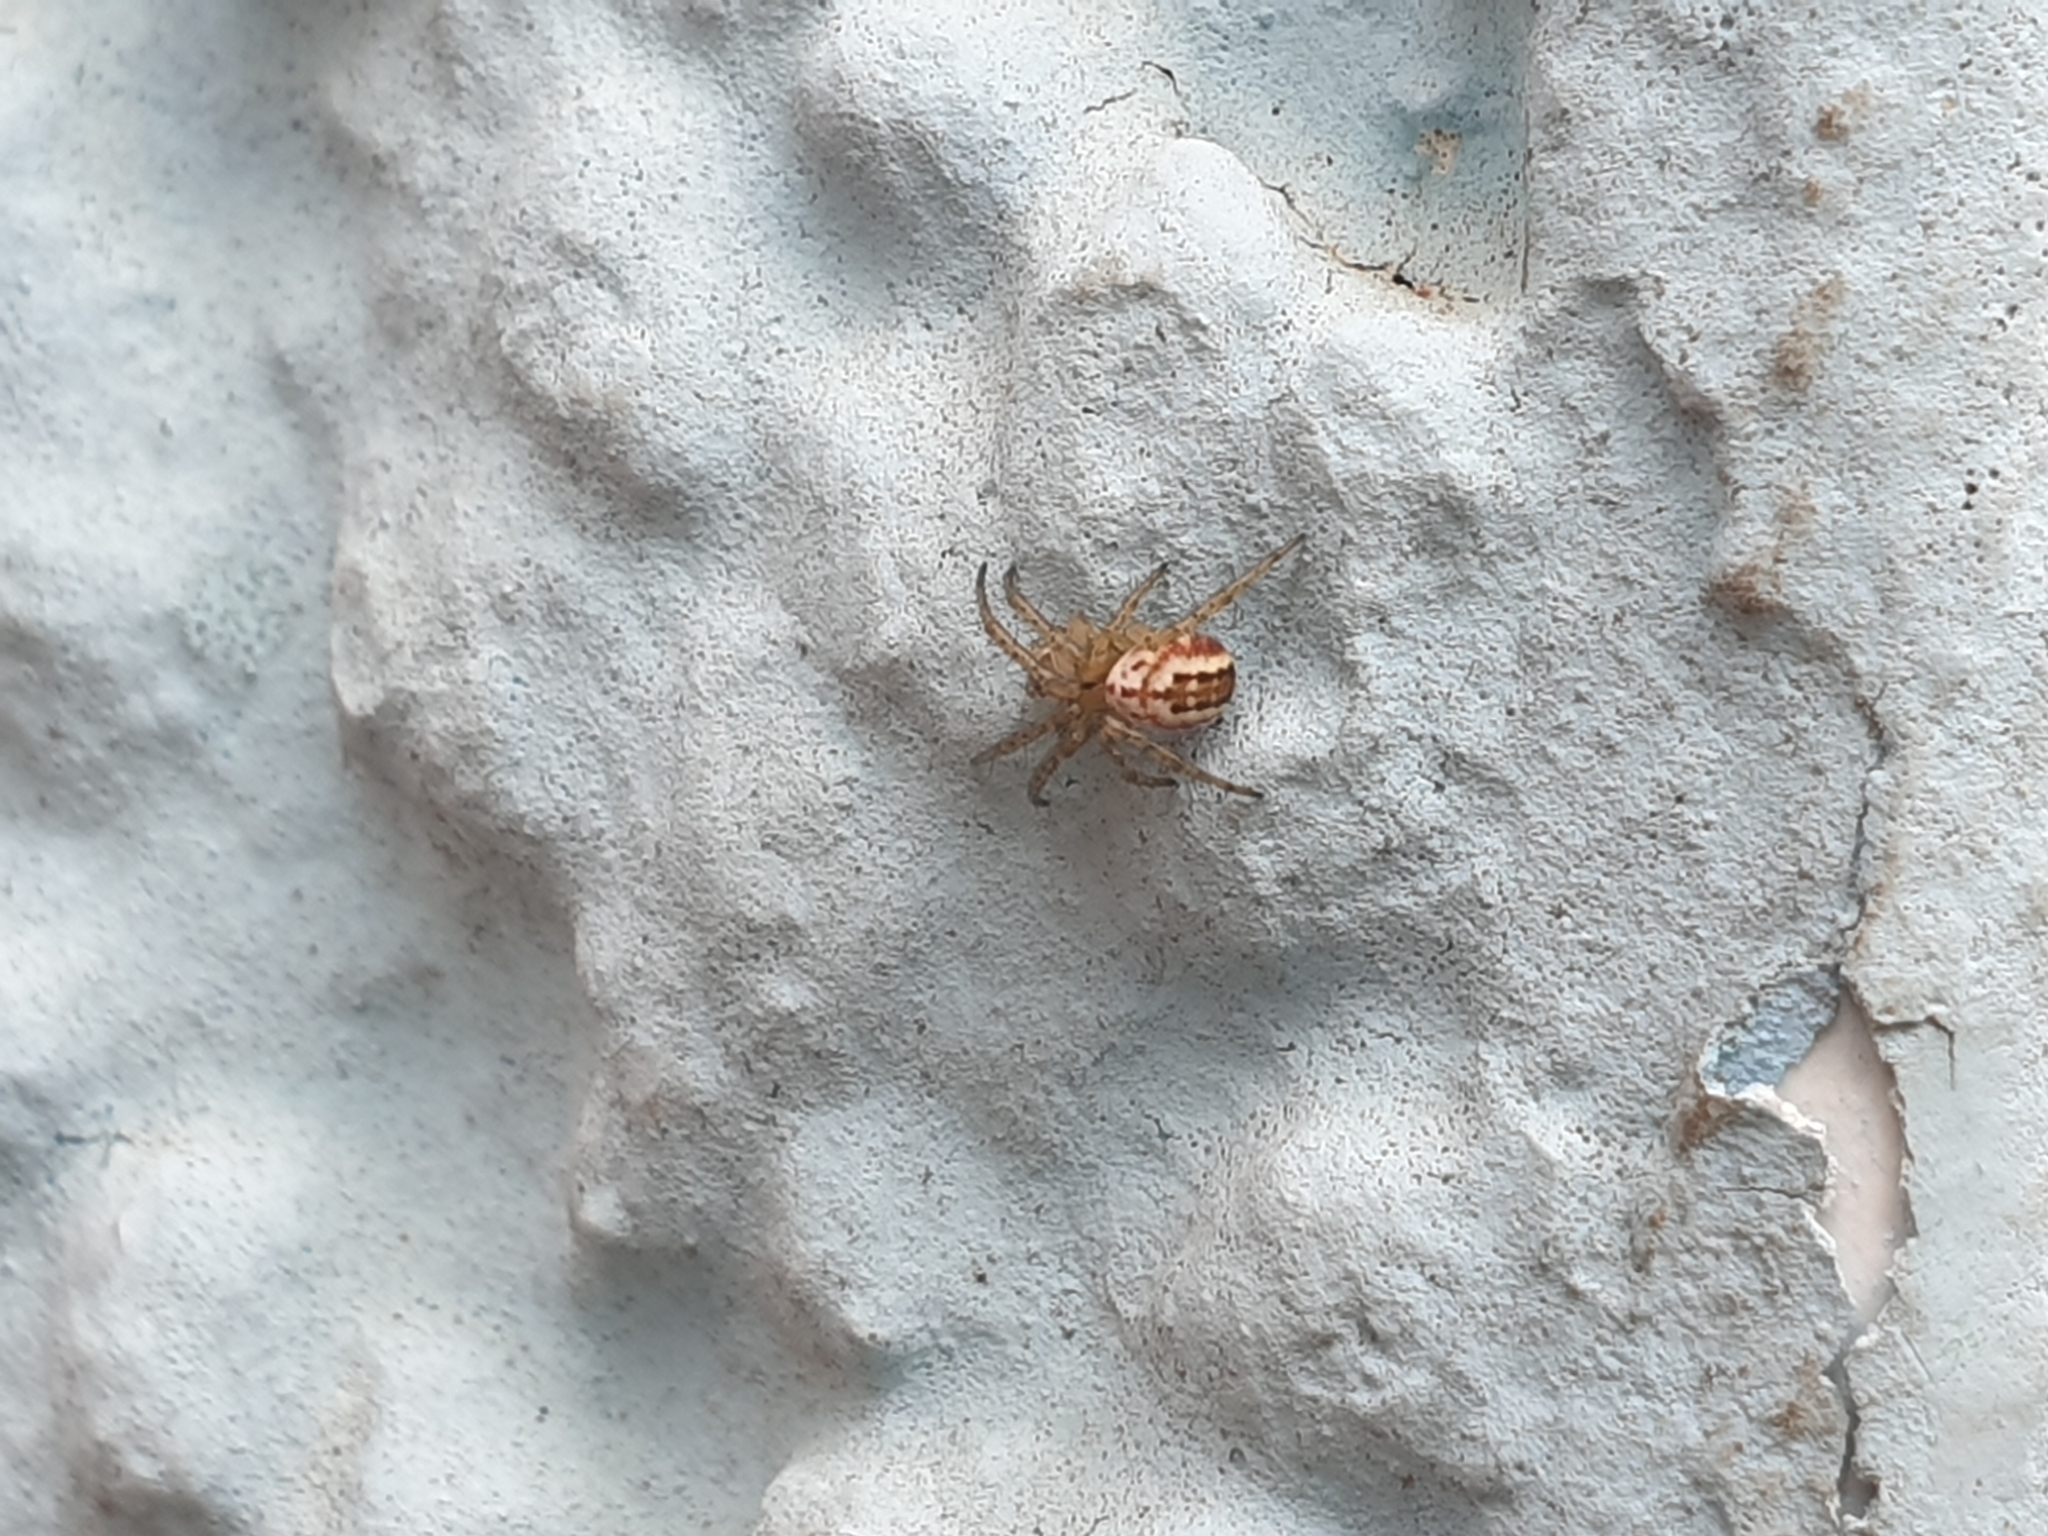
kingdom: Animalia
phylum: Arthropoda
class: Arachnida
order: Araneae
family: Araneidae
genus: Mangora
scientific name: Mangora acalypha
